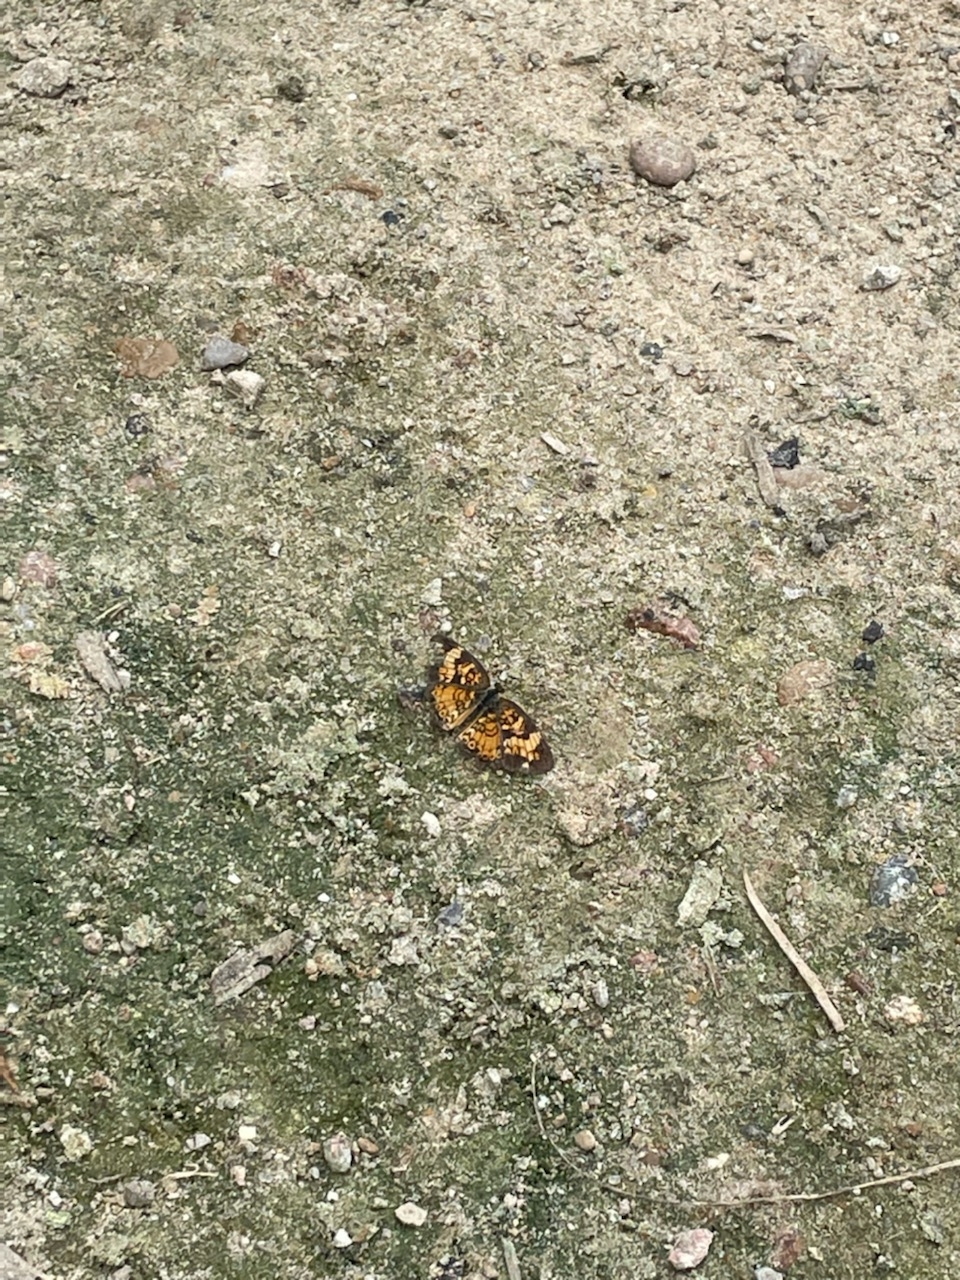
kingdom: Animalia
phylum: Arthropoda
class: Insecta
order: Lepidoptera
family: Nymphalidae
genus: Phyciodes
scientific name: Phyciodes tharos
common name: Pearl crescent
